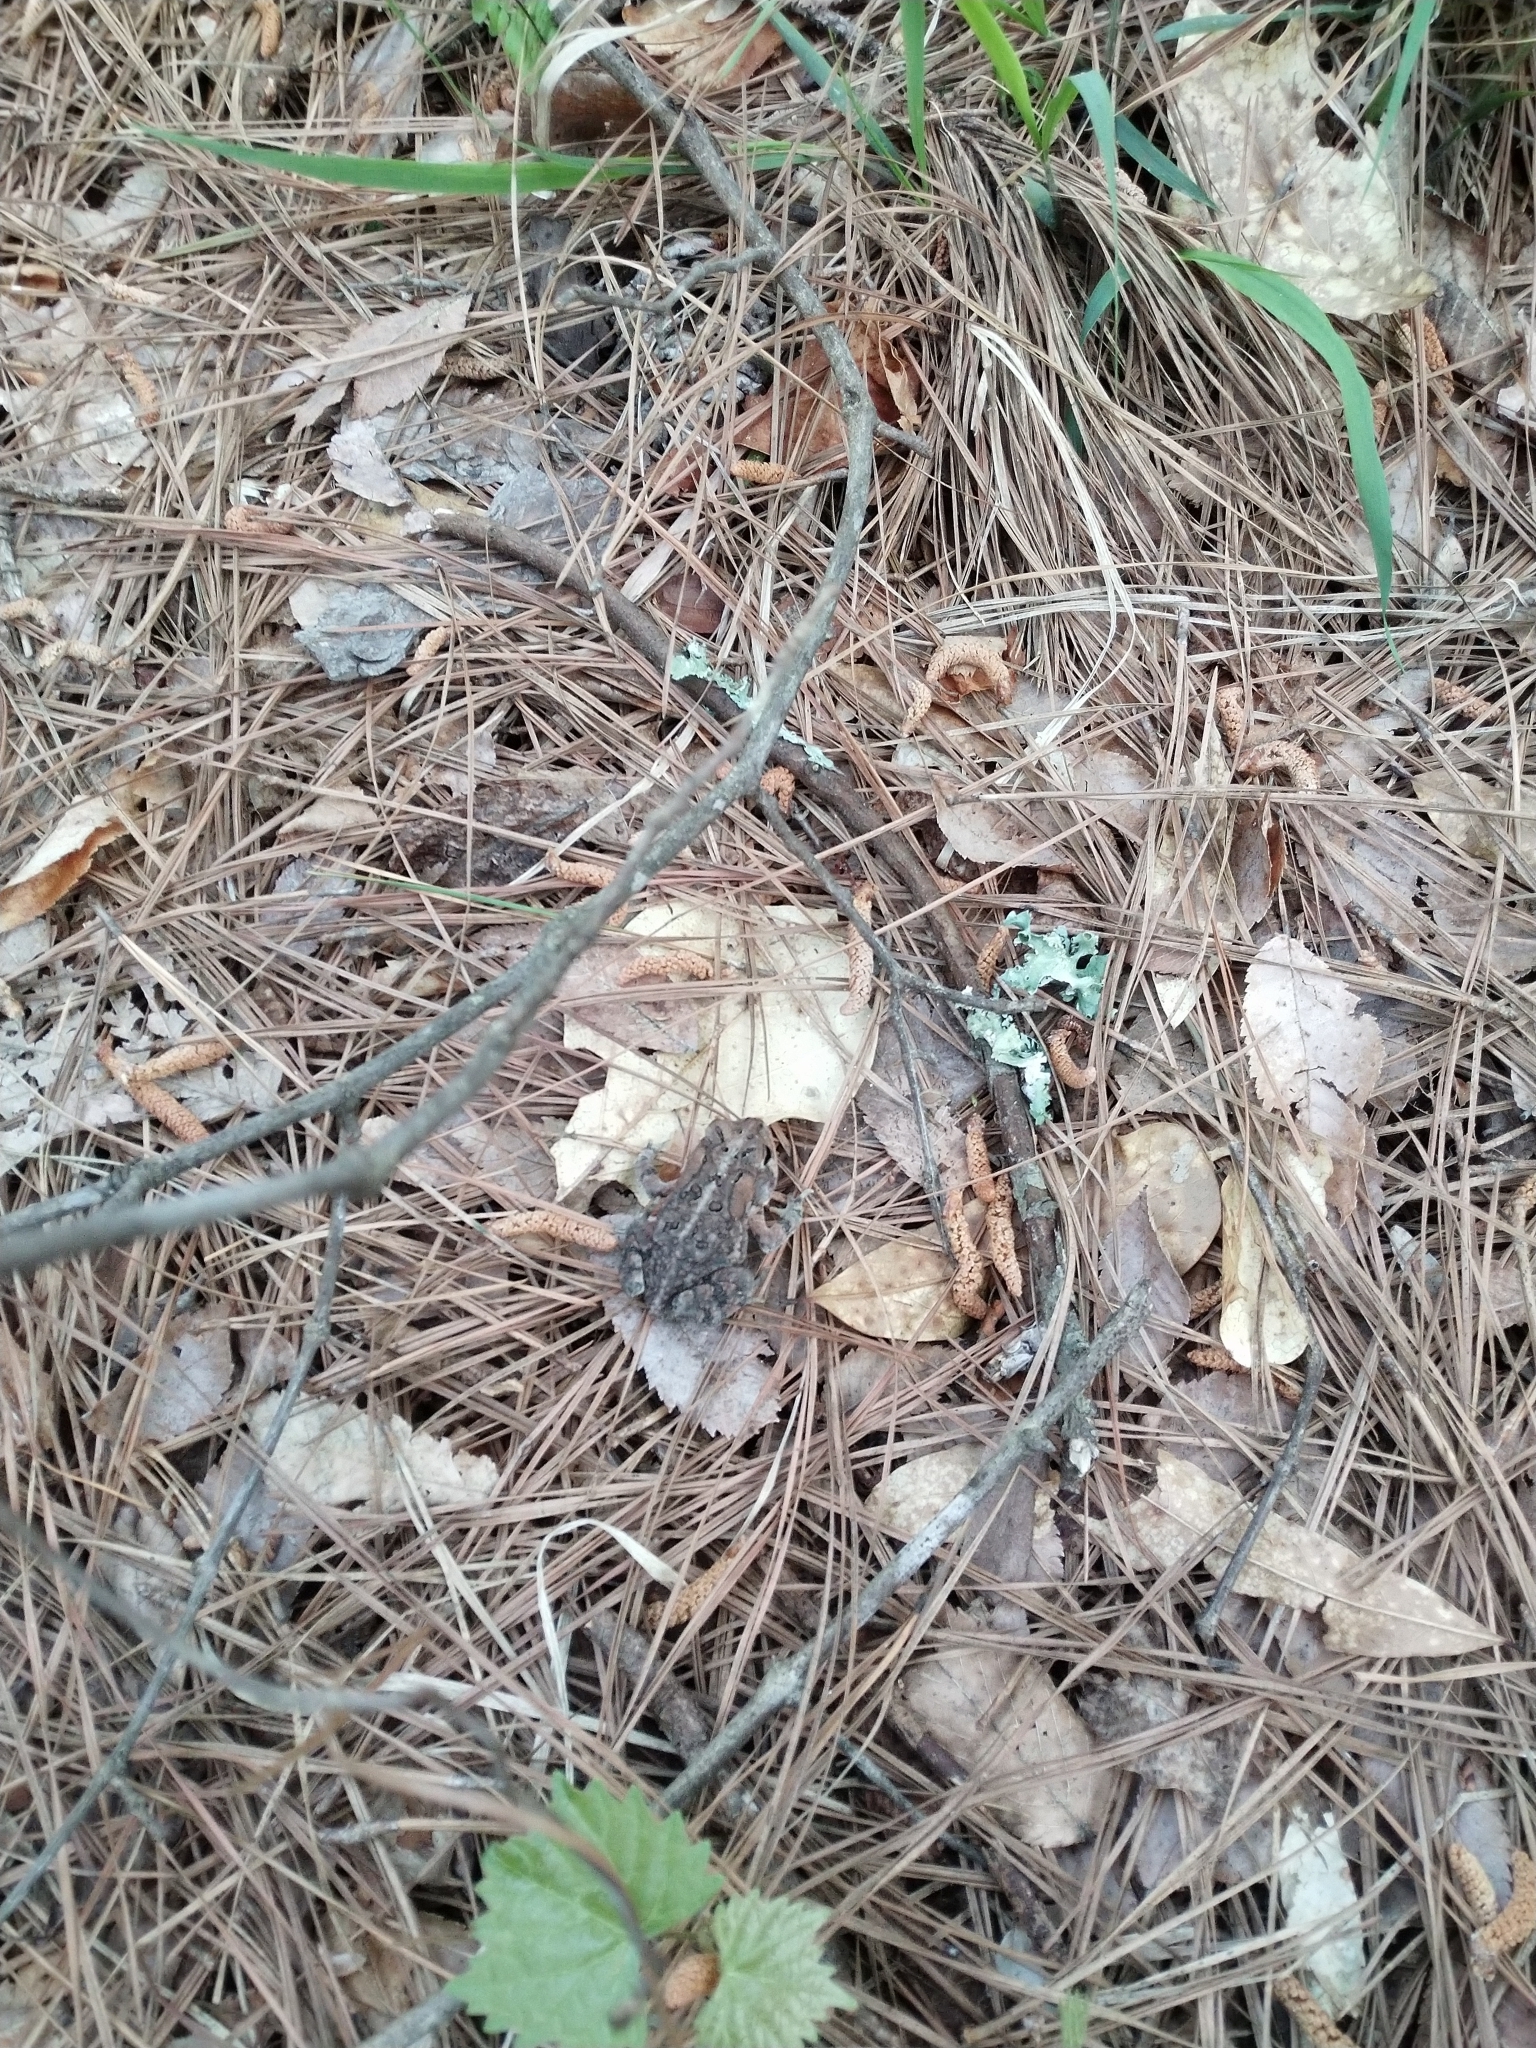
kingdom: Animalia
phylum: Chordata
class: Amphibia
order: Anura
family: Bufonidae
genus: Anaxyrus
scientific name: Anaxyrus terrestris
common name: Southern toad
